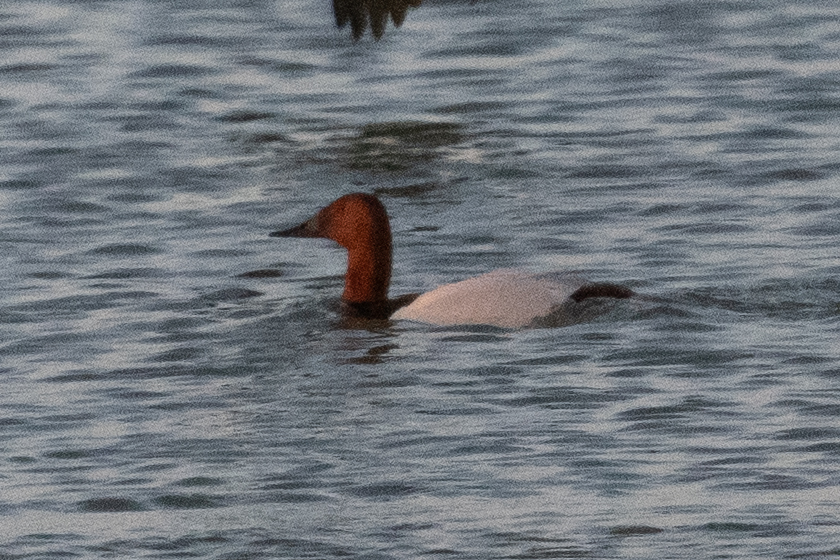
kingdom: Animalia
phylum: Chordata
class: Aves
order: Anseriformes
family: Anatidae
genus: Aythya
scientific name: Aythya valisineria
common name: Canvasback
